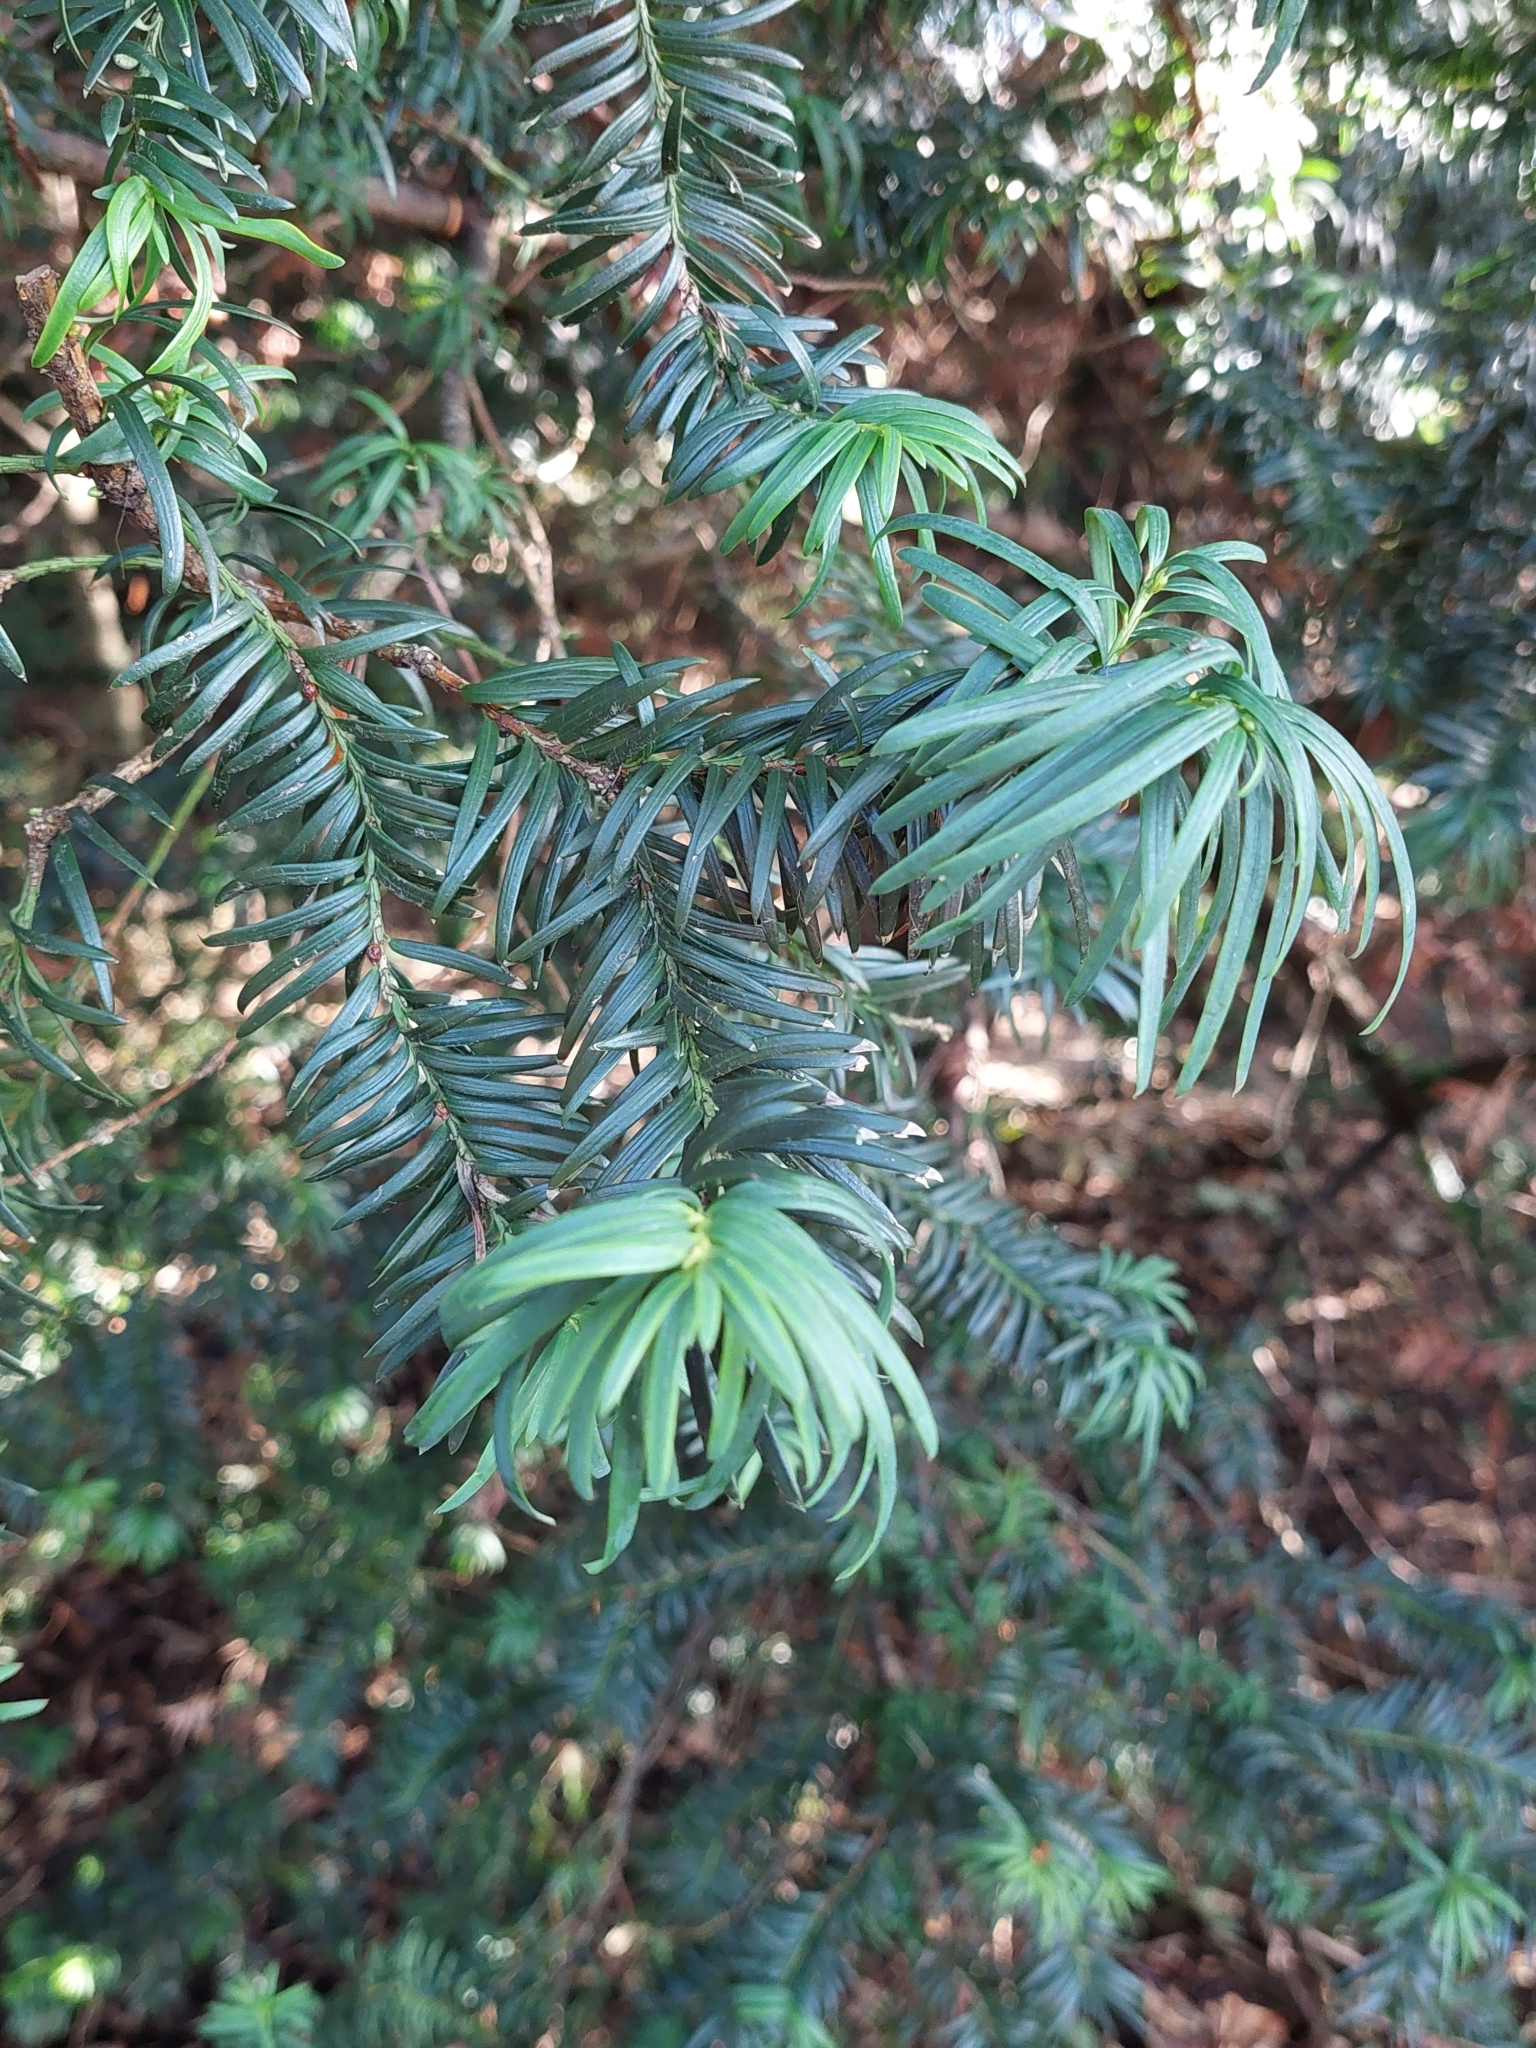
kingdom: Plantae
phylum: Tracheophyta
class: Pinopsida
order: Pinales
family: Taxaceae
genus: Taxus
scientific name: Taxus baccata
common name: Yew
